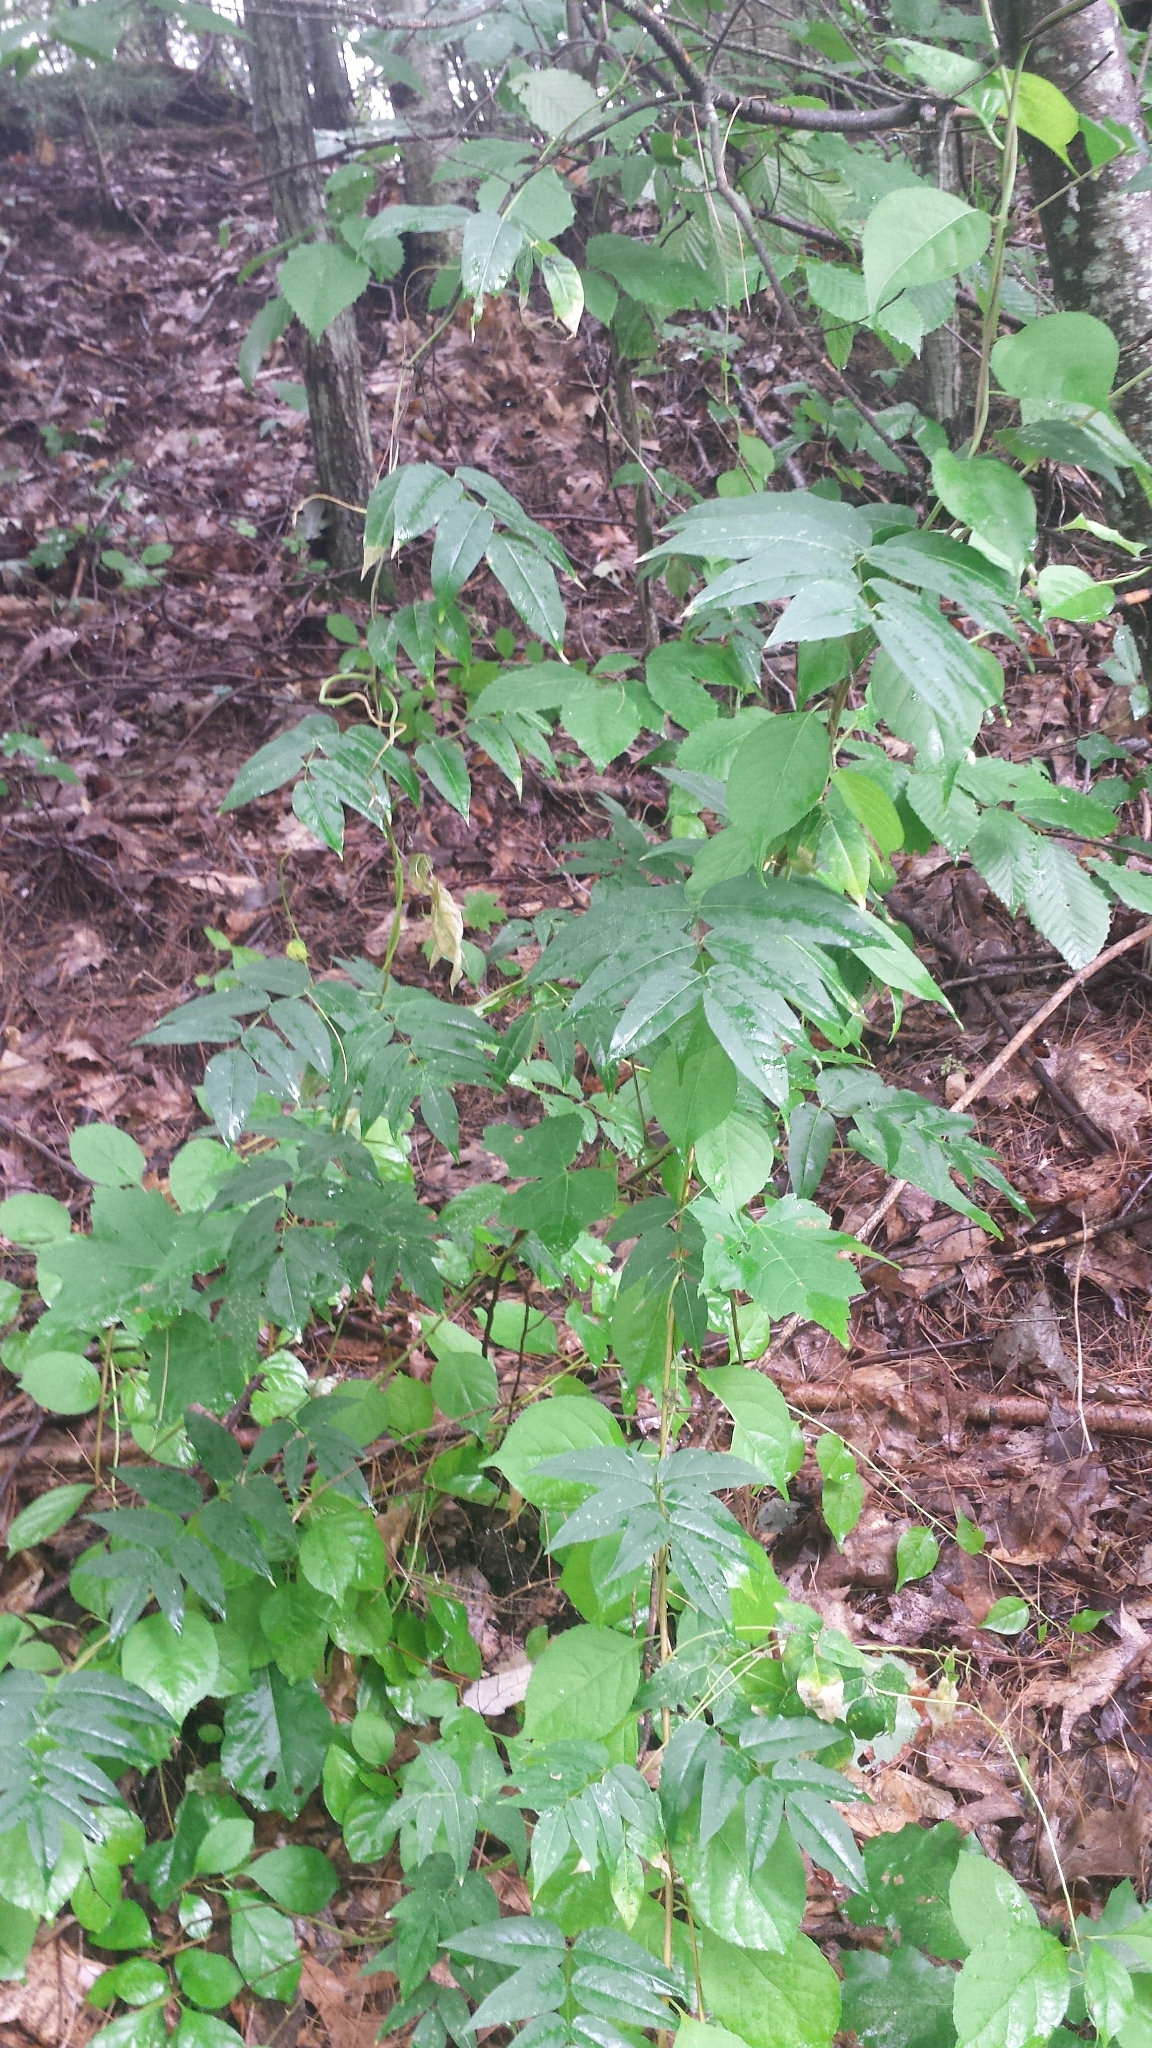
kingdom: Plantae
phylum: Tracheophyta
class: Magnoliopsida
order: Fabales
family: Fabaceae
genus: Apios
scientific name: Apios americana
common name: American potato-bean
